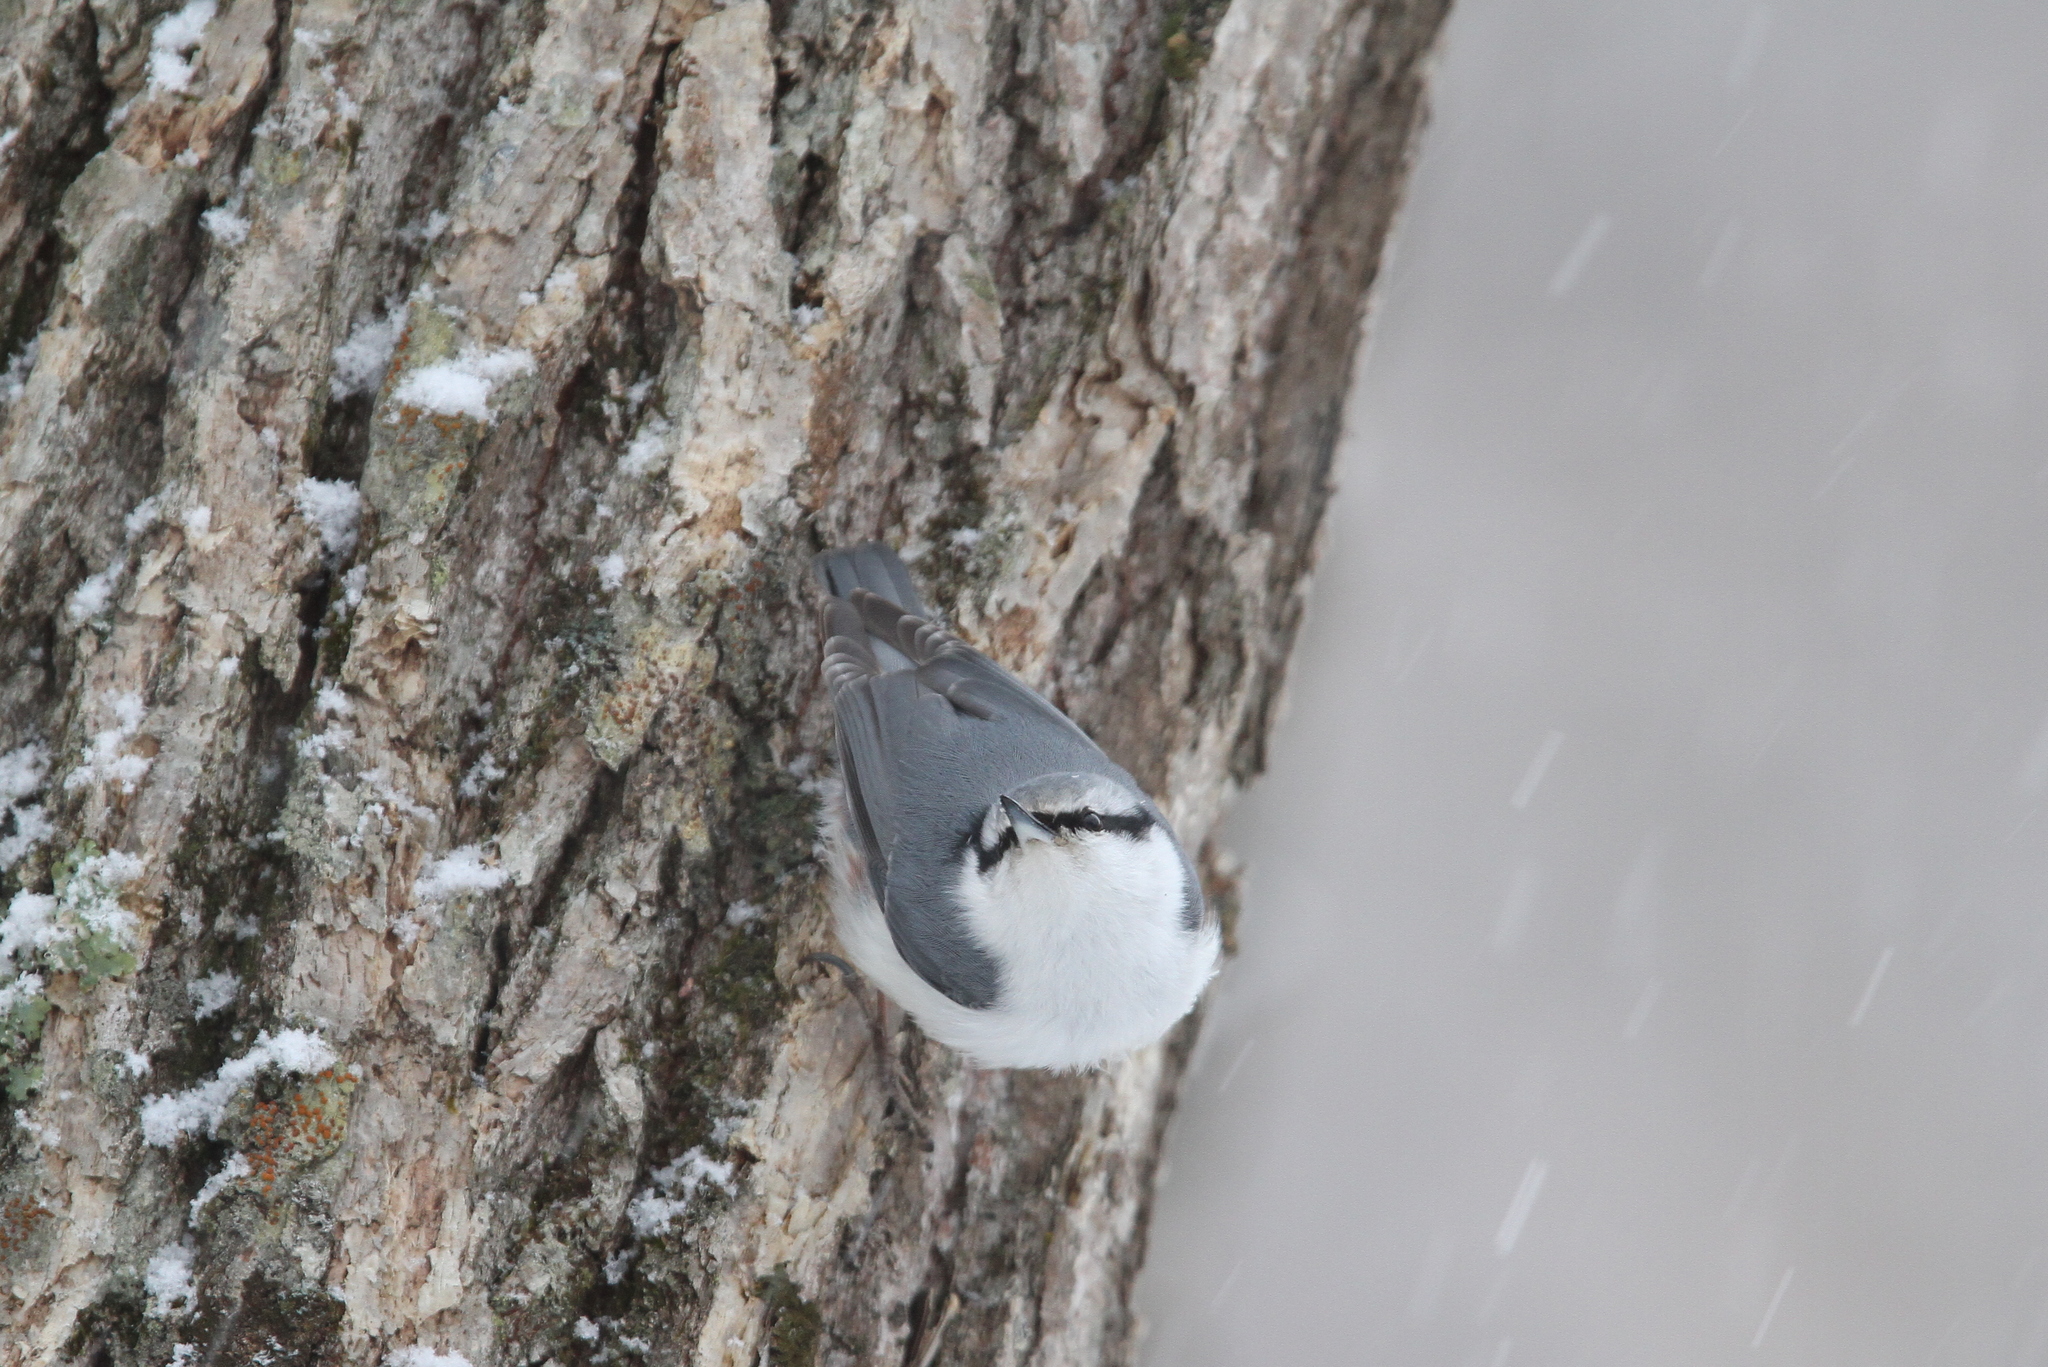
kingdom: Animalia
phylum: Chordata
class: Aves
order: Passeriformes
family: Sittidae
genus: Sitta
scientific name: Sitta europaea
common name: Eurasian nuthatch
